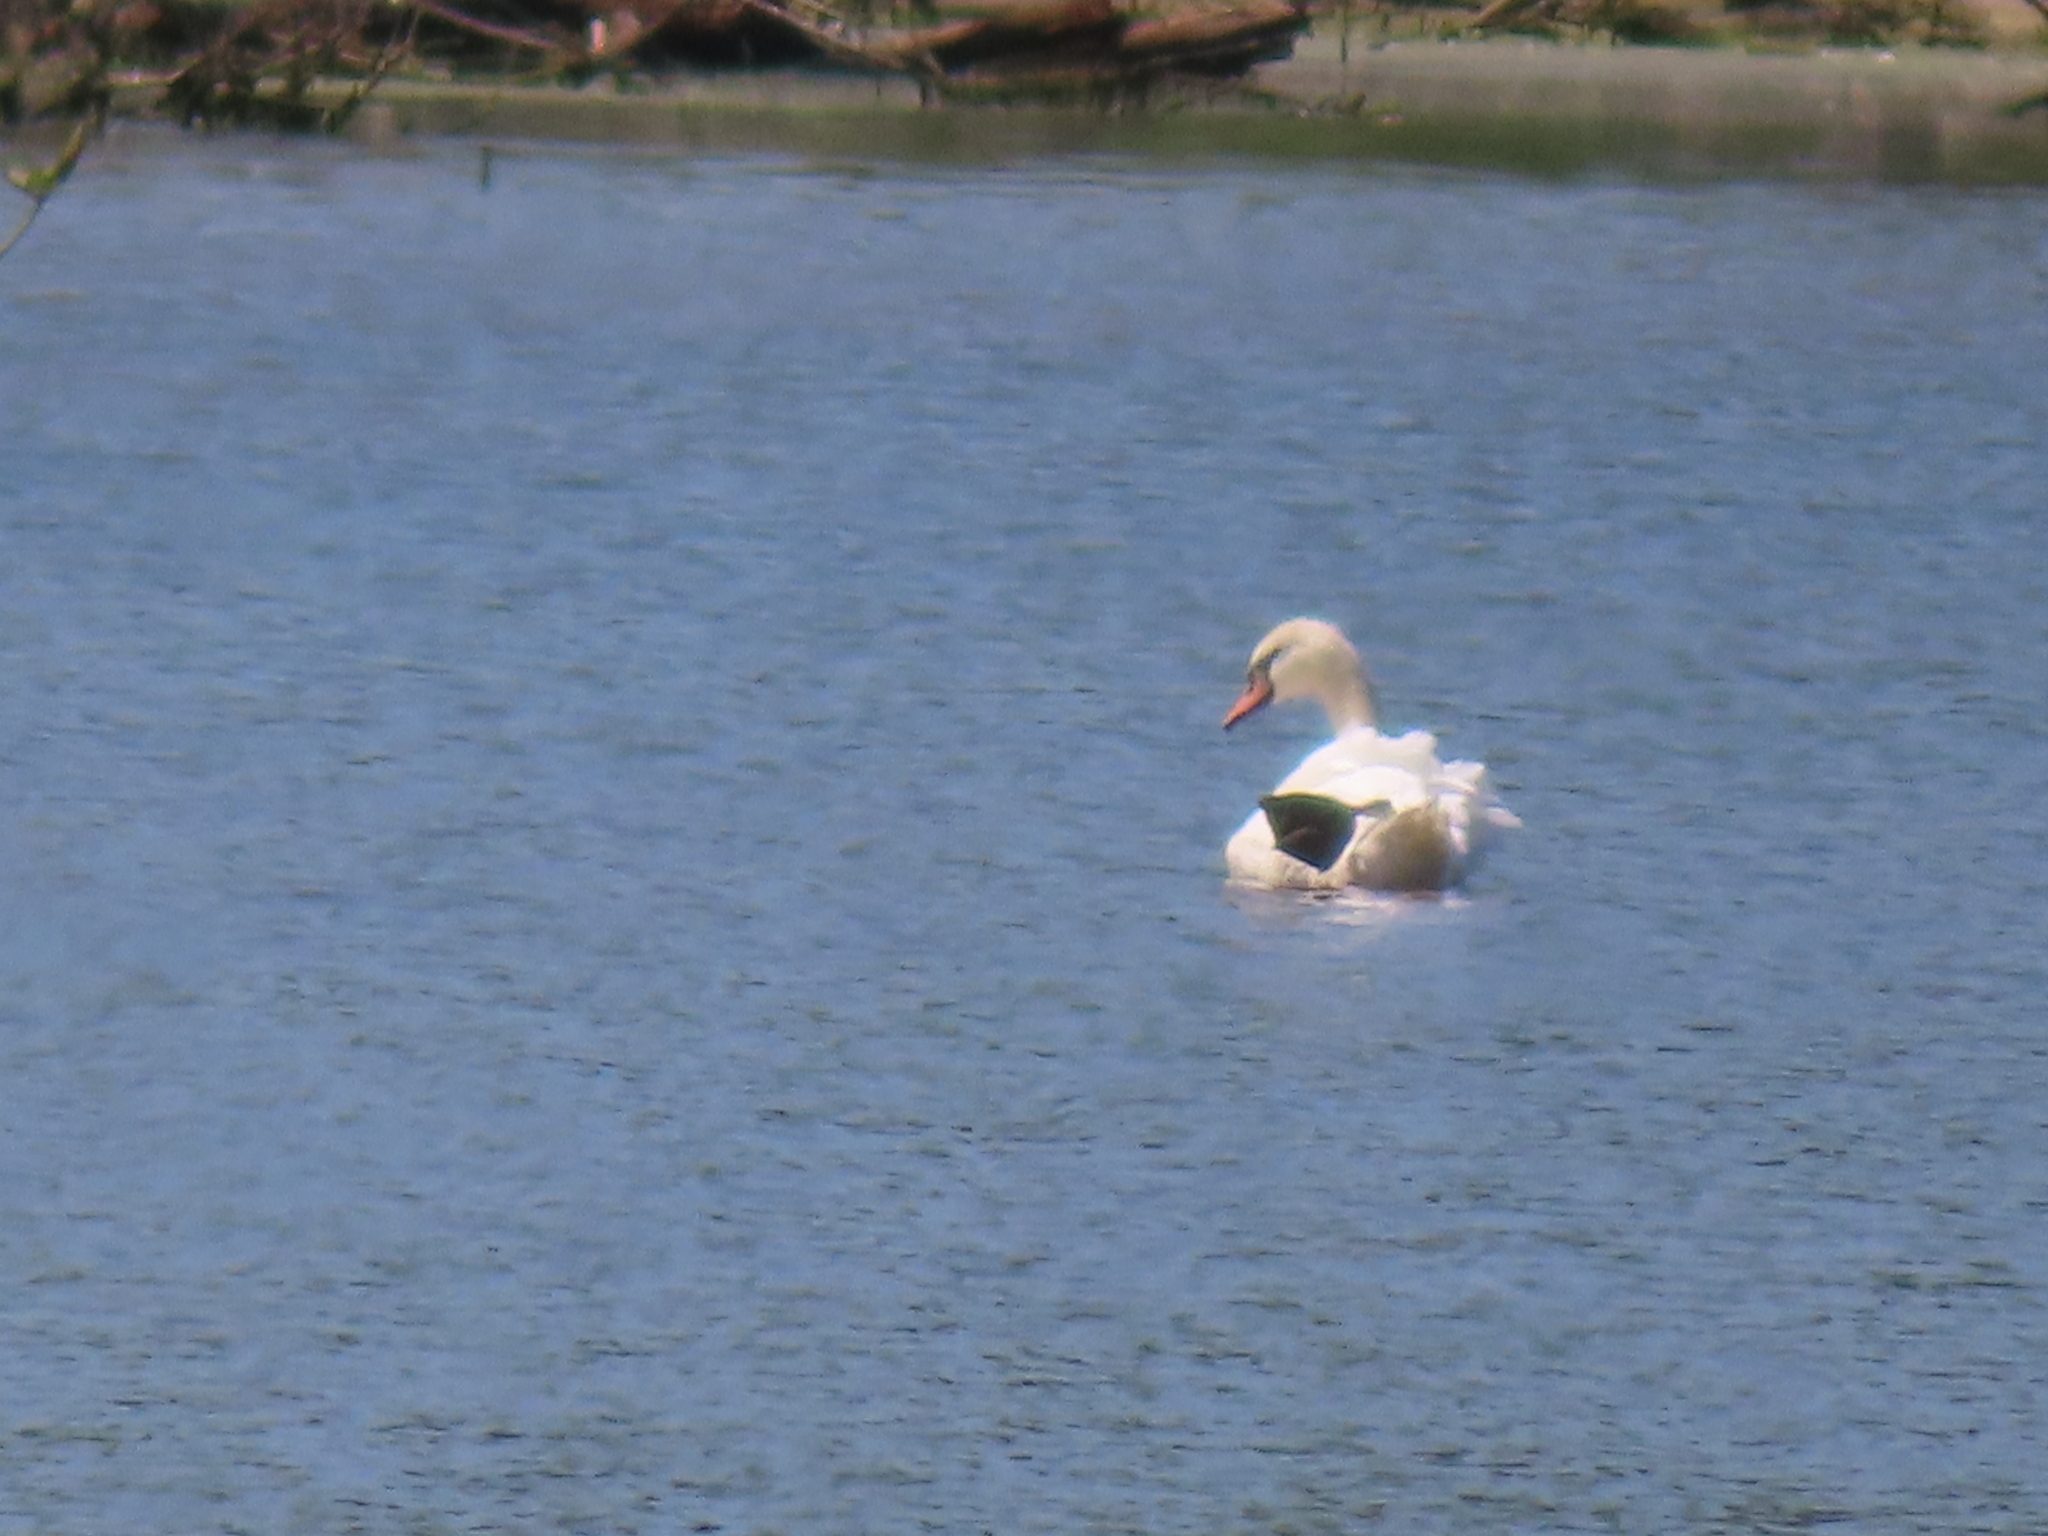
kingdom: Animalia
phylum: Chordata
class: Aves
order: Anseriformes
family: Anatidae
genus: Cygnus
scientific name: Cygnus olor
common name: Mute swan
